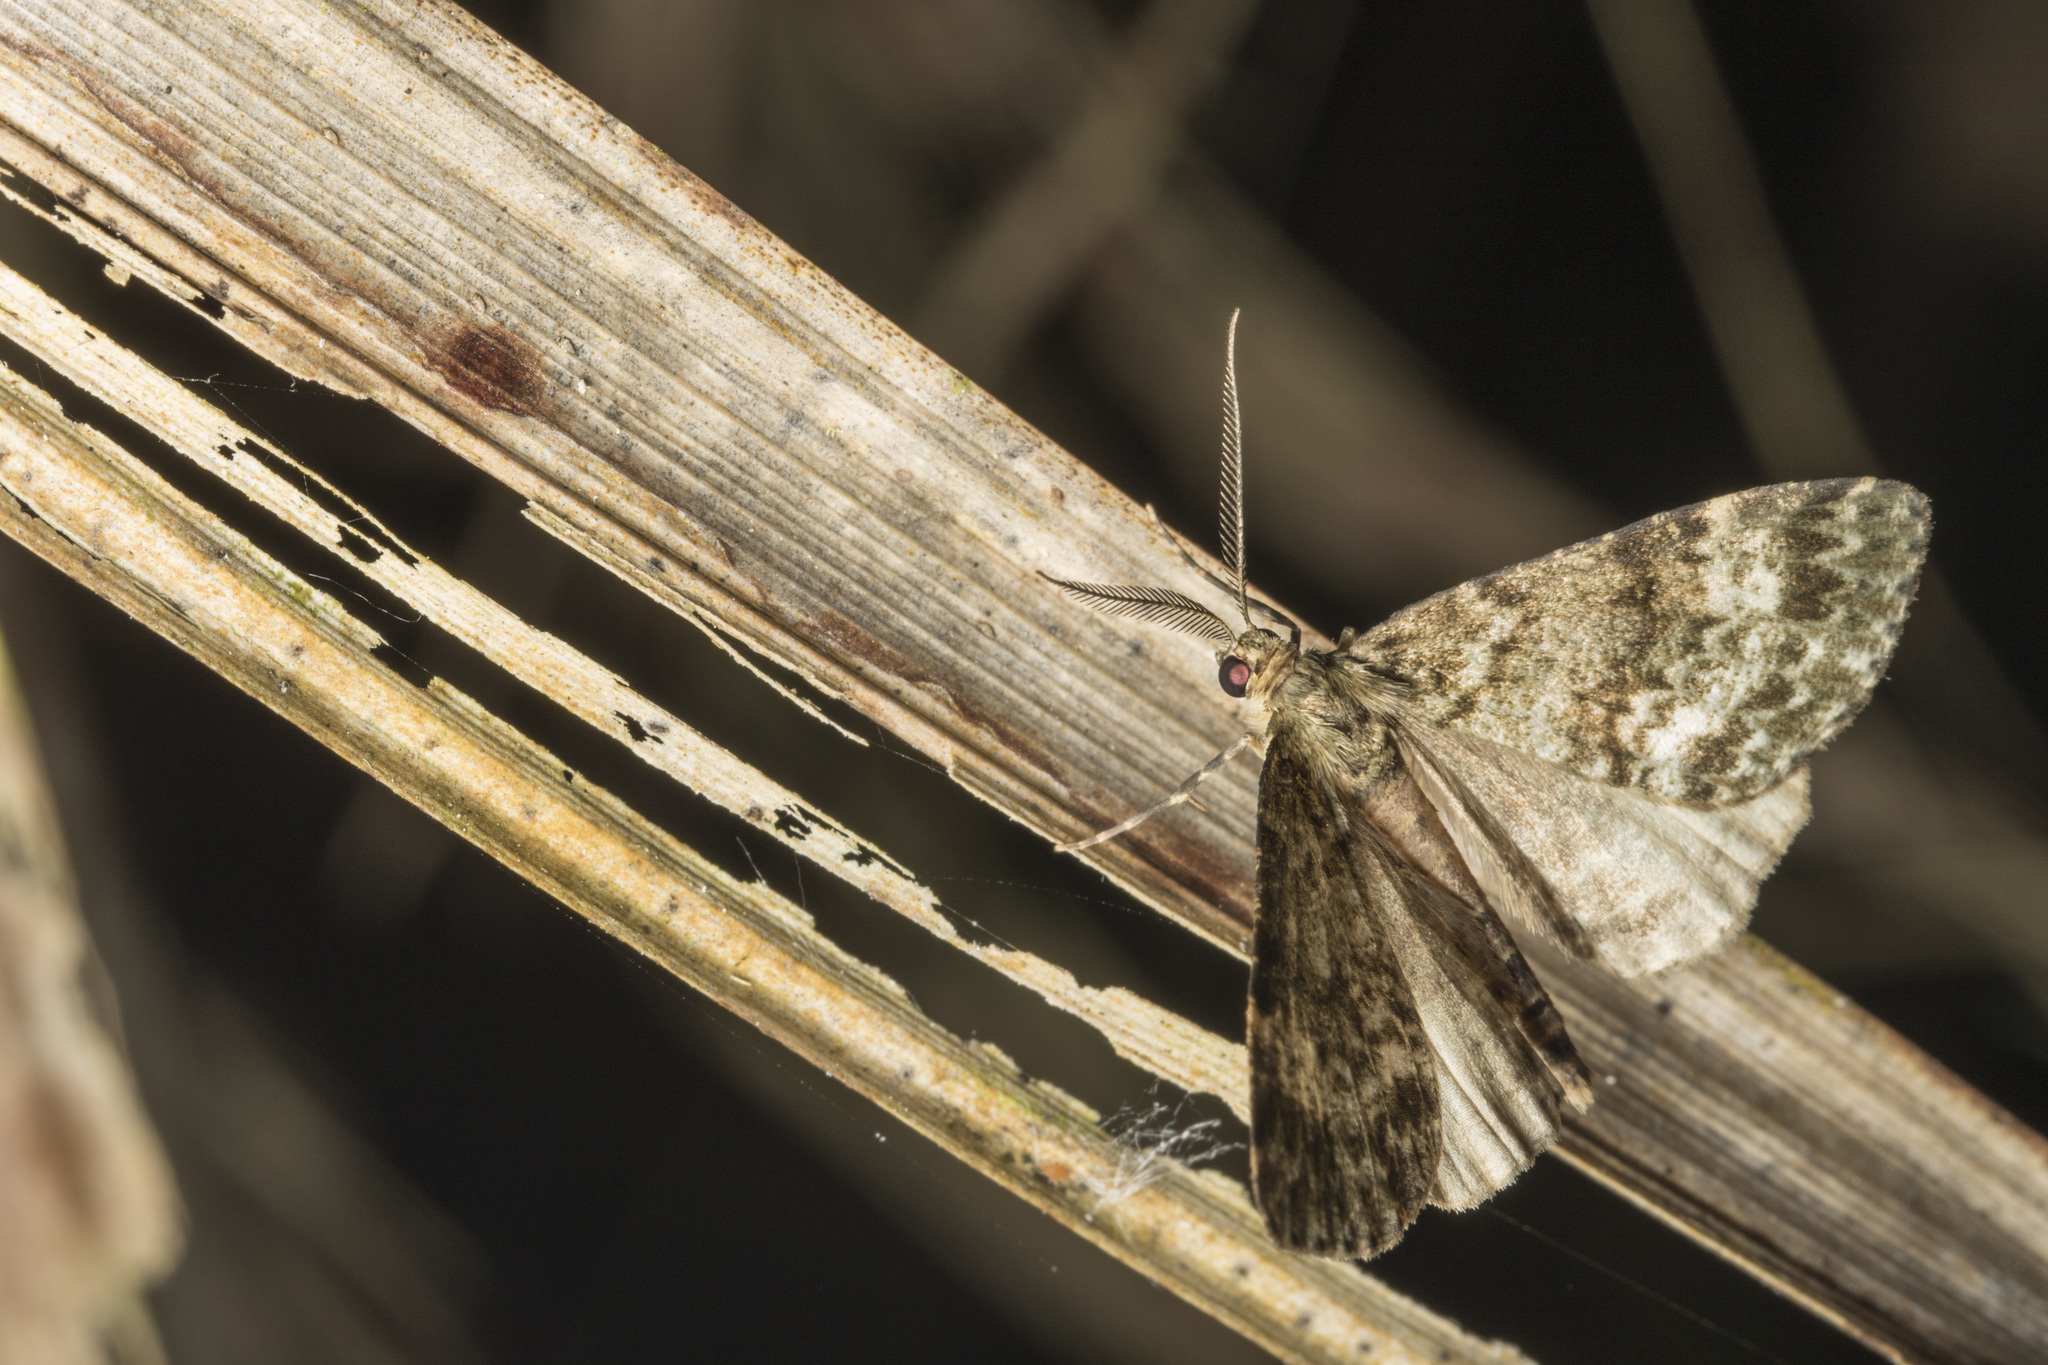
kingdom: Animalia
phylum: Arthropoda
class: Insecta
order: Lepidoptera
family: Geometridae
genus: Pseudocoremia
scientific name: Pseudocoremia suavis
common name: Common forest looper
